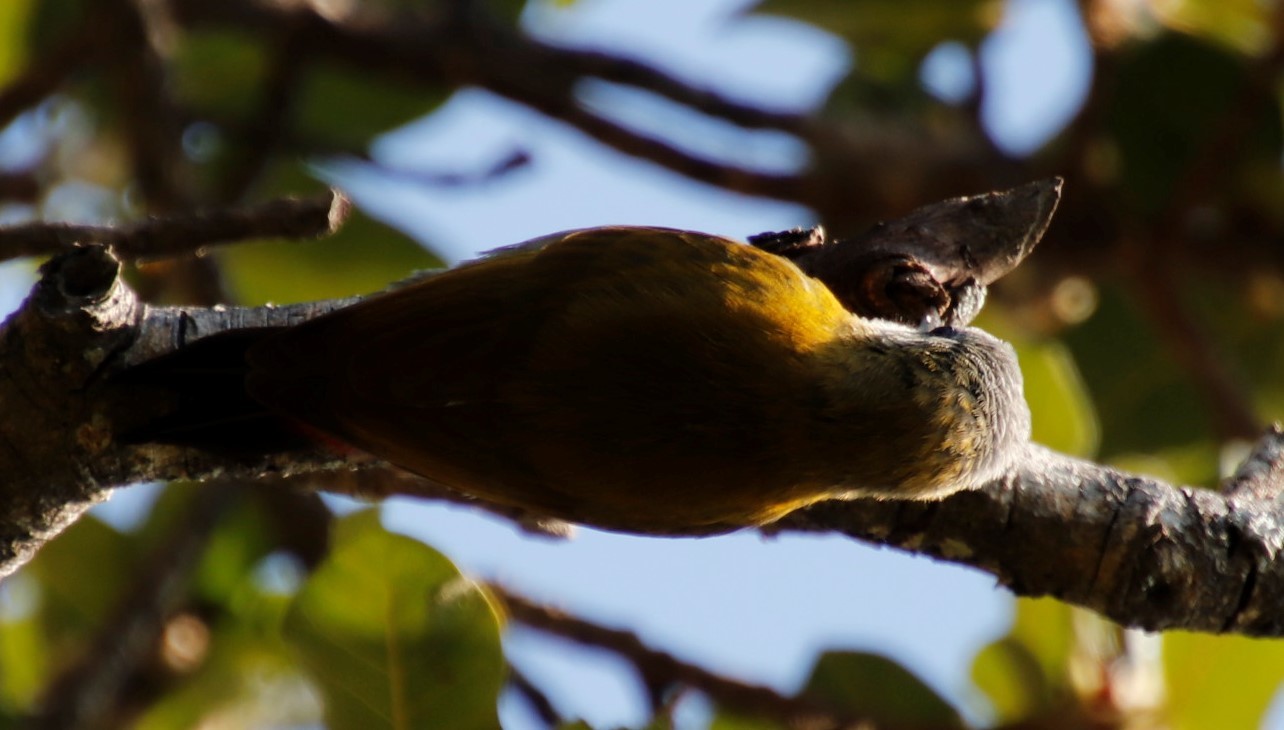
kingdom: Animalia
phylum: Chordata
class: Aves
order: Piciformes
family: Picidae
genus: Dendropicos
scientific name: Dendropicos griseocephalus
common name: Olive woodpecker
